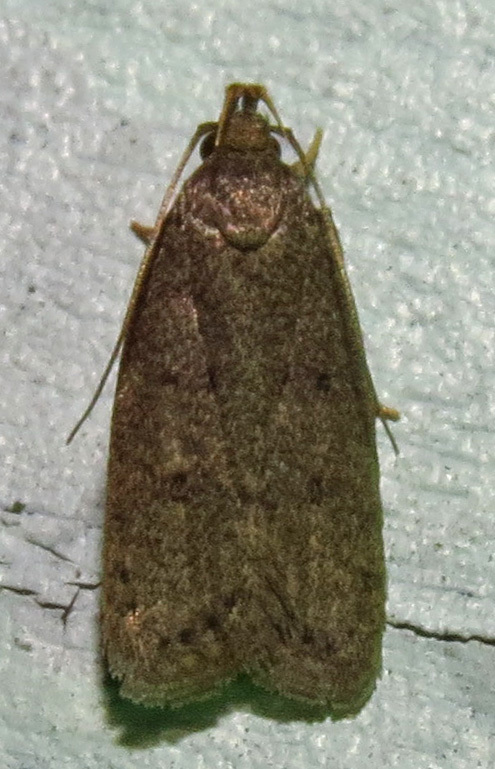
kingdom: Animalia
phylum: Arthropoda
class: Insecta
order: Lepidoptera
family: Autostichidae
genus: Glyphidocera
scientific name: Glyphidocera juniperella
